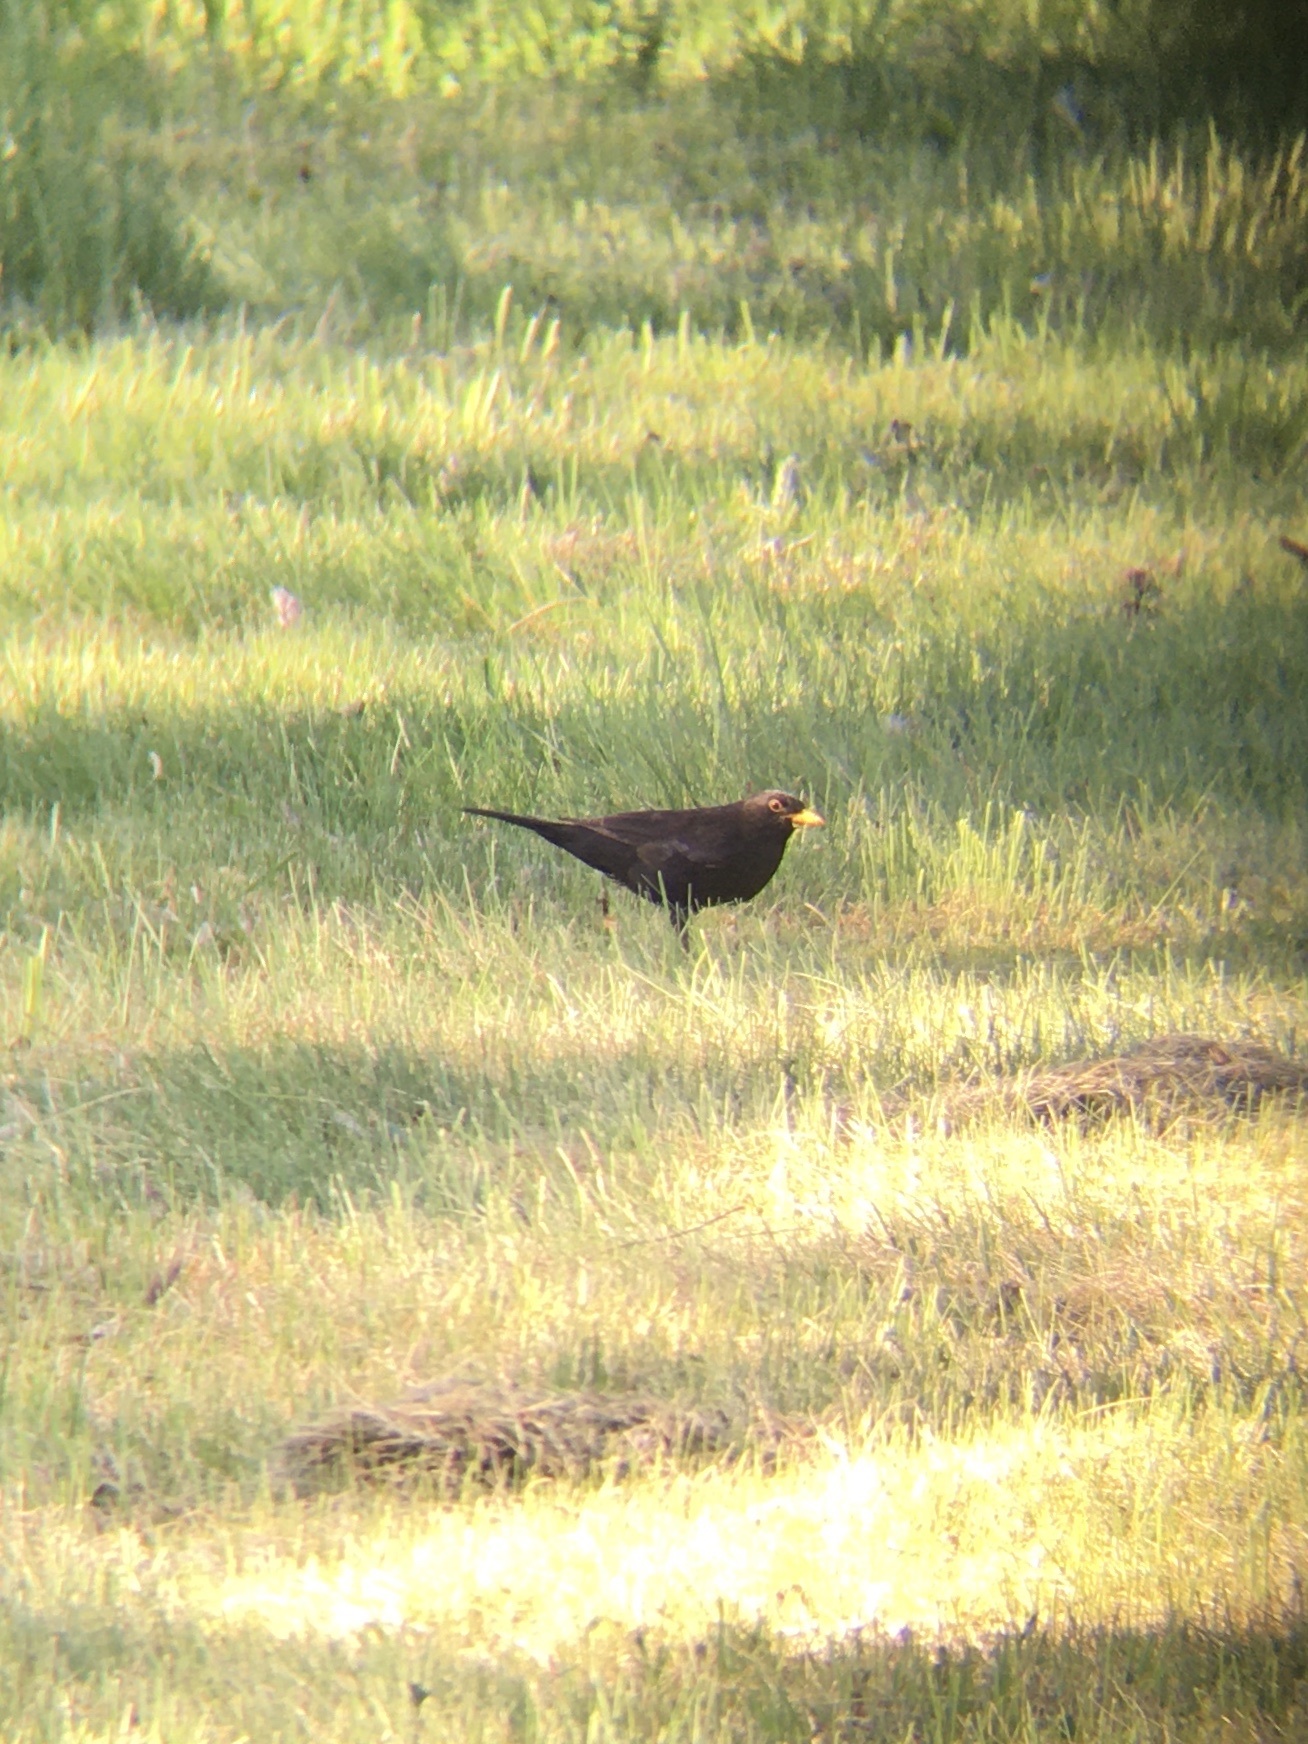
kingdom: Animalia
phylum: Chordata
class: Aves
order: Passeriformes
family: Turdidae
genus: Turdus
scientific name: Turdus merula
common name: Common blackbird
